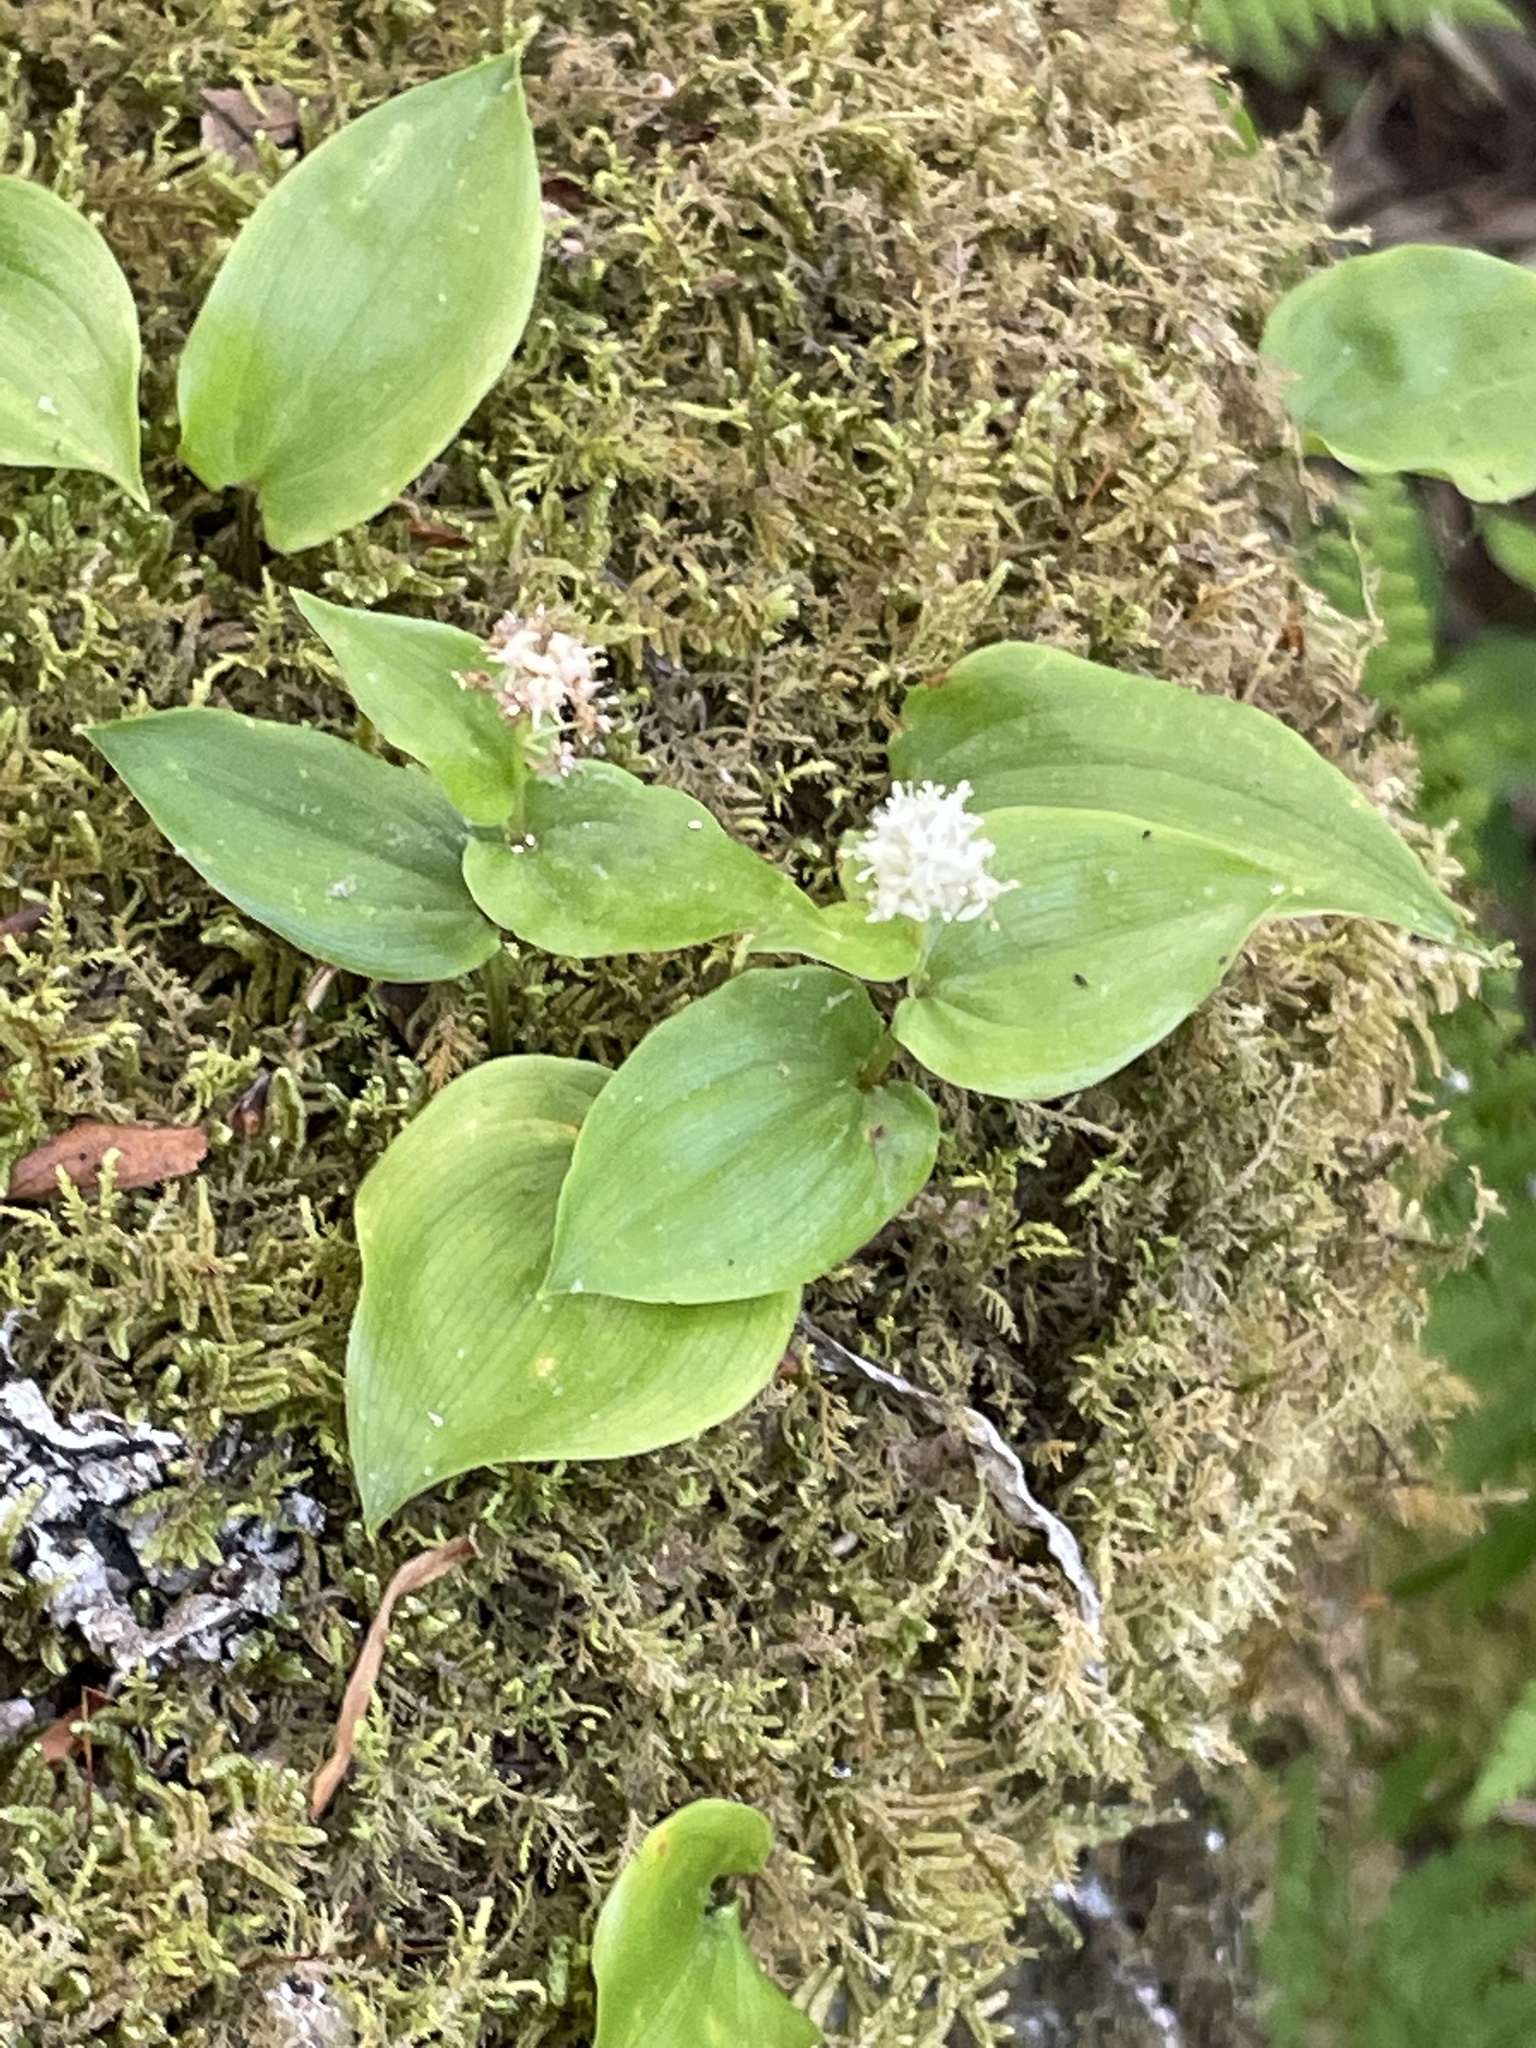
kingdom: Plantae
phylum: Tracheophyta
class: Liliopsida
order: Asparagales
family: Asparagaceae
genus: Maianthemum
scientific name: Maianthemum canadense
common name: False lily-of-the-valley
